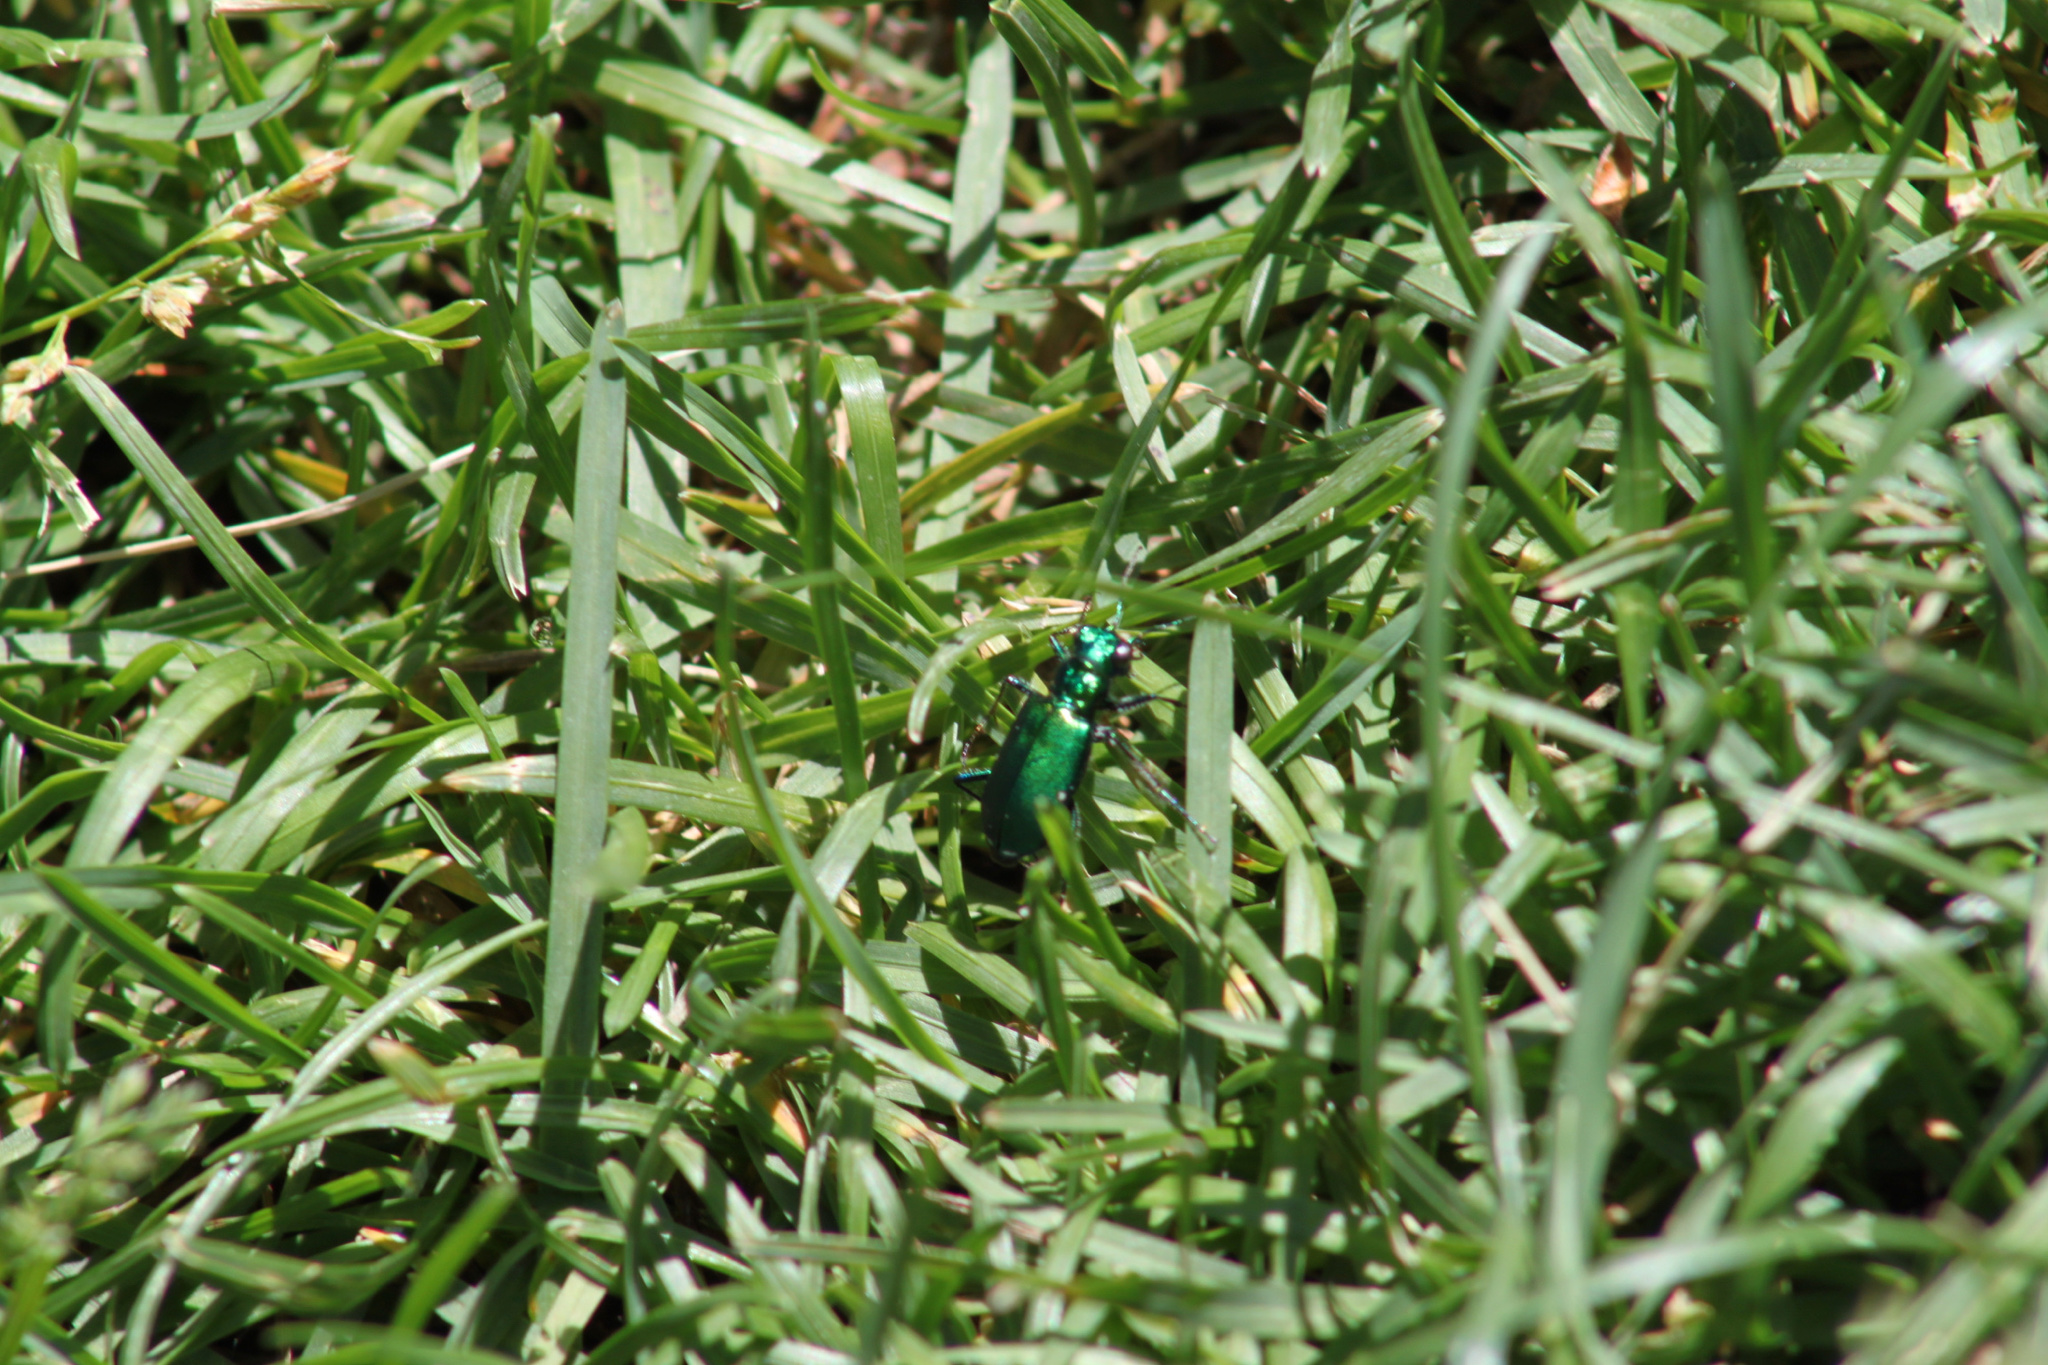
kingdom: Animalia
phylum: Arthropoda
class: Insecta
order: Coleoptera
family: Carabidae
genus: Cicindela
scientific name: Cicindela sexguttata
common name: Six-spotted tiger beetle
